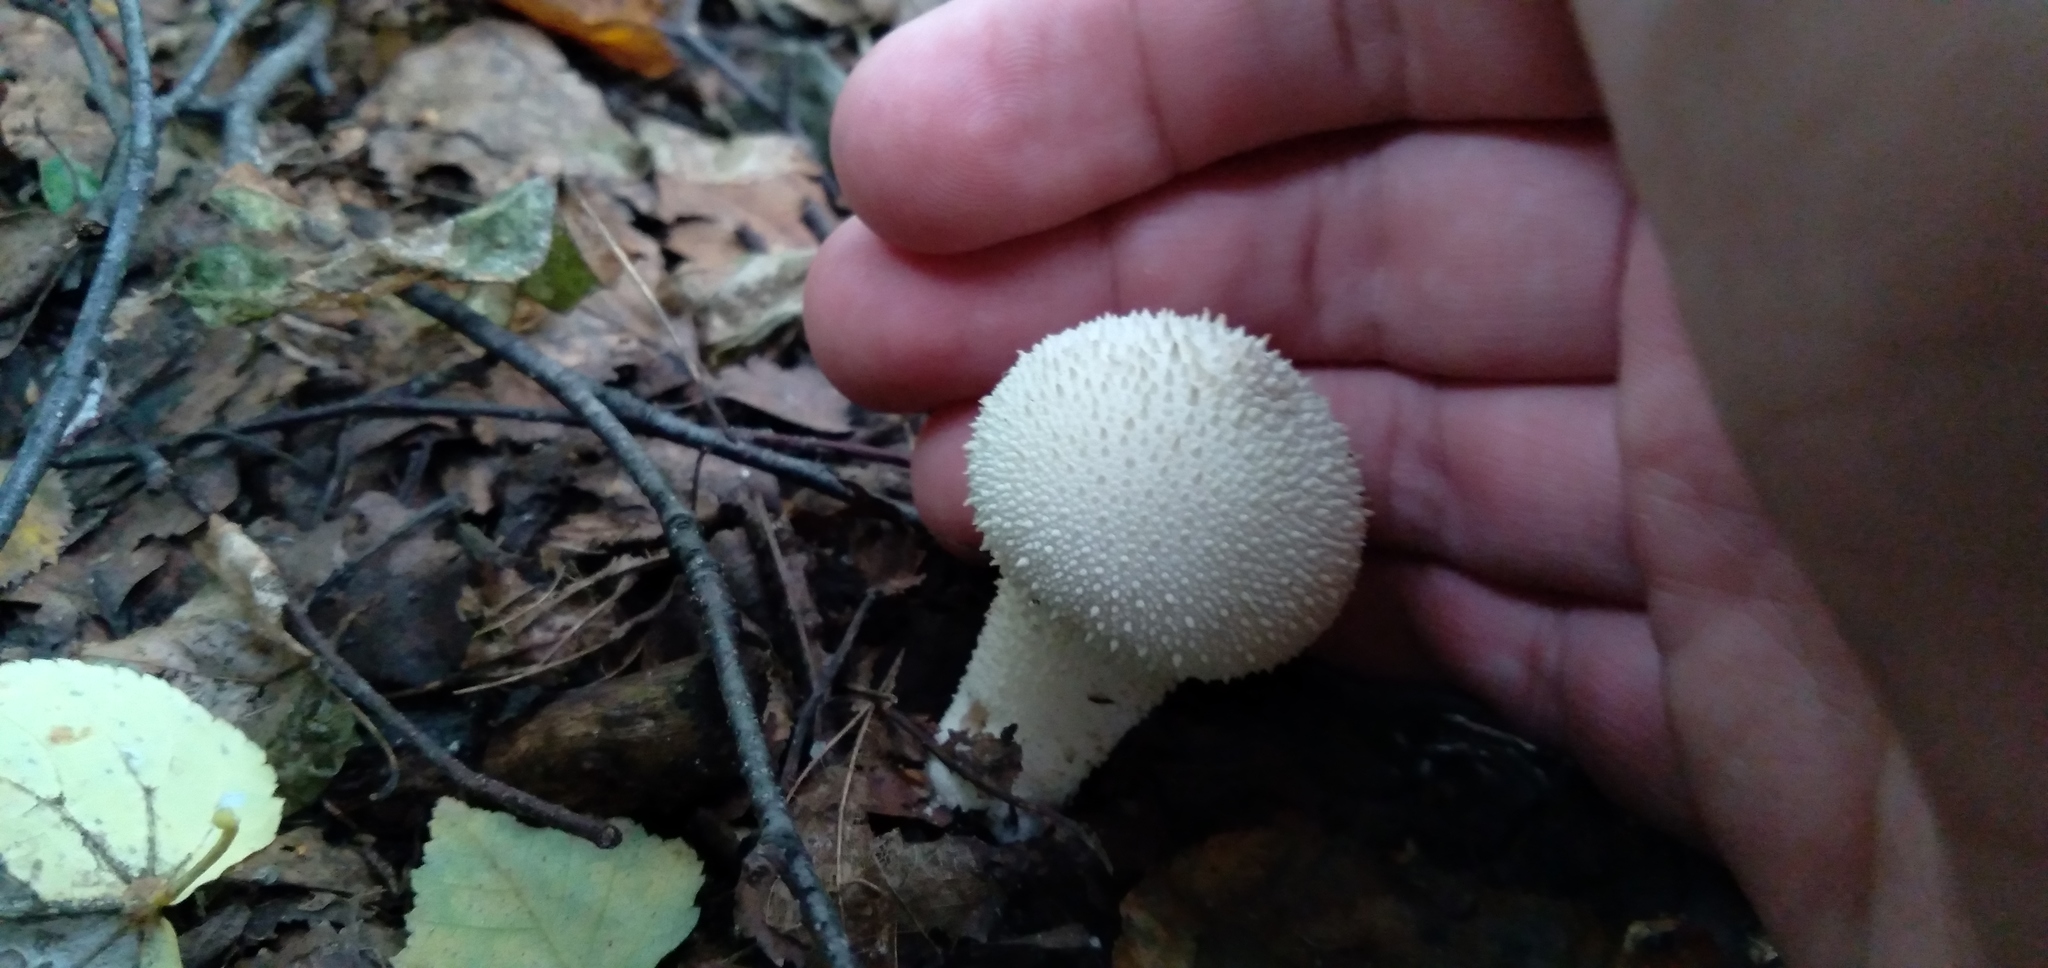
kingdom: Fungi
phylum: Basidiomycota
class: Agaricomycetes
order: Agaricales
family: Lycoperdaceae
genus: Lycoperdon
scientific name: Lycoperdon perlatum
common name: Common puffball
